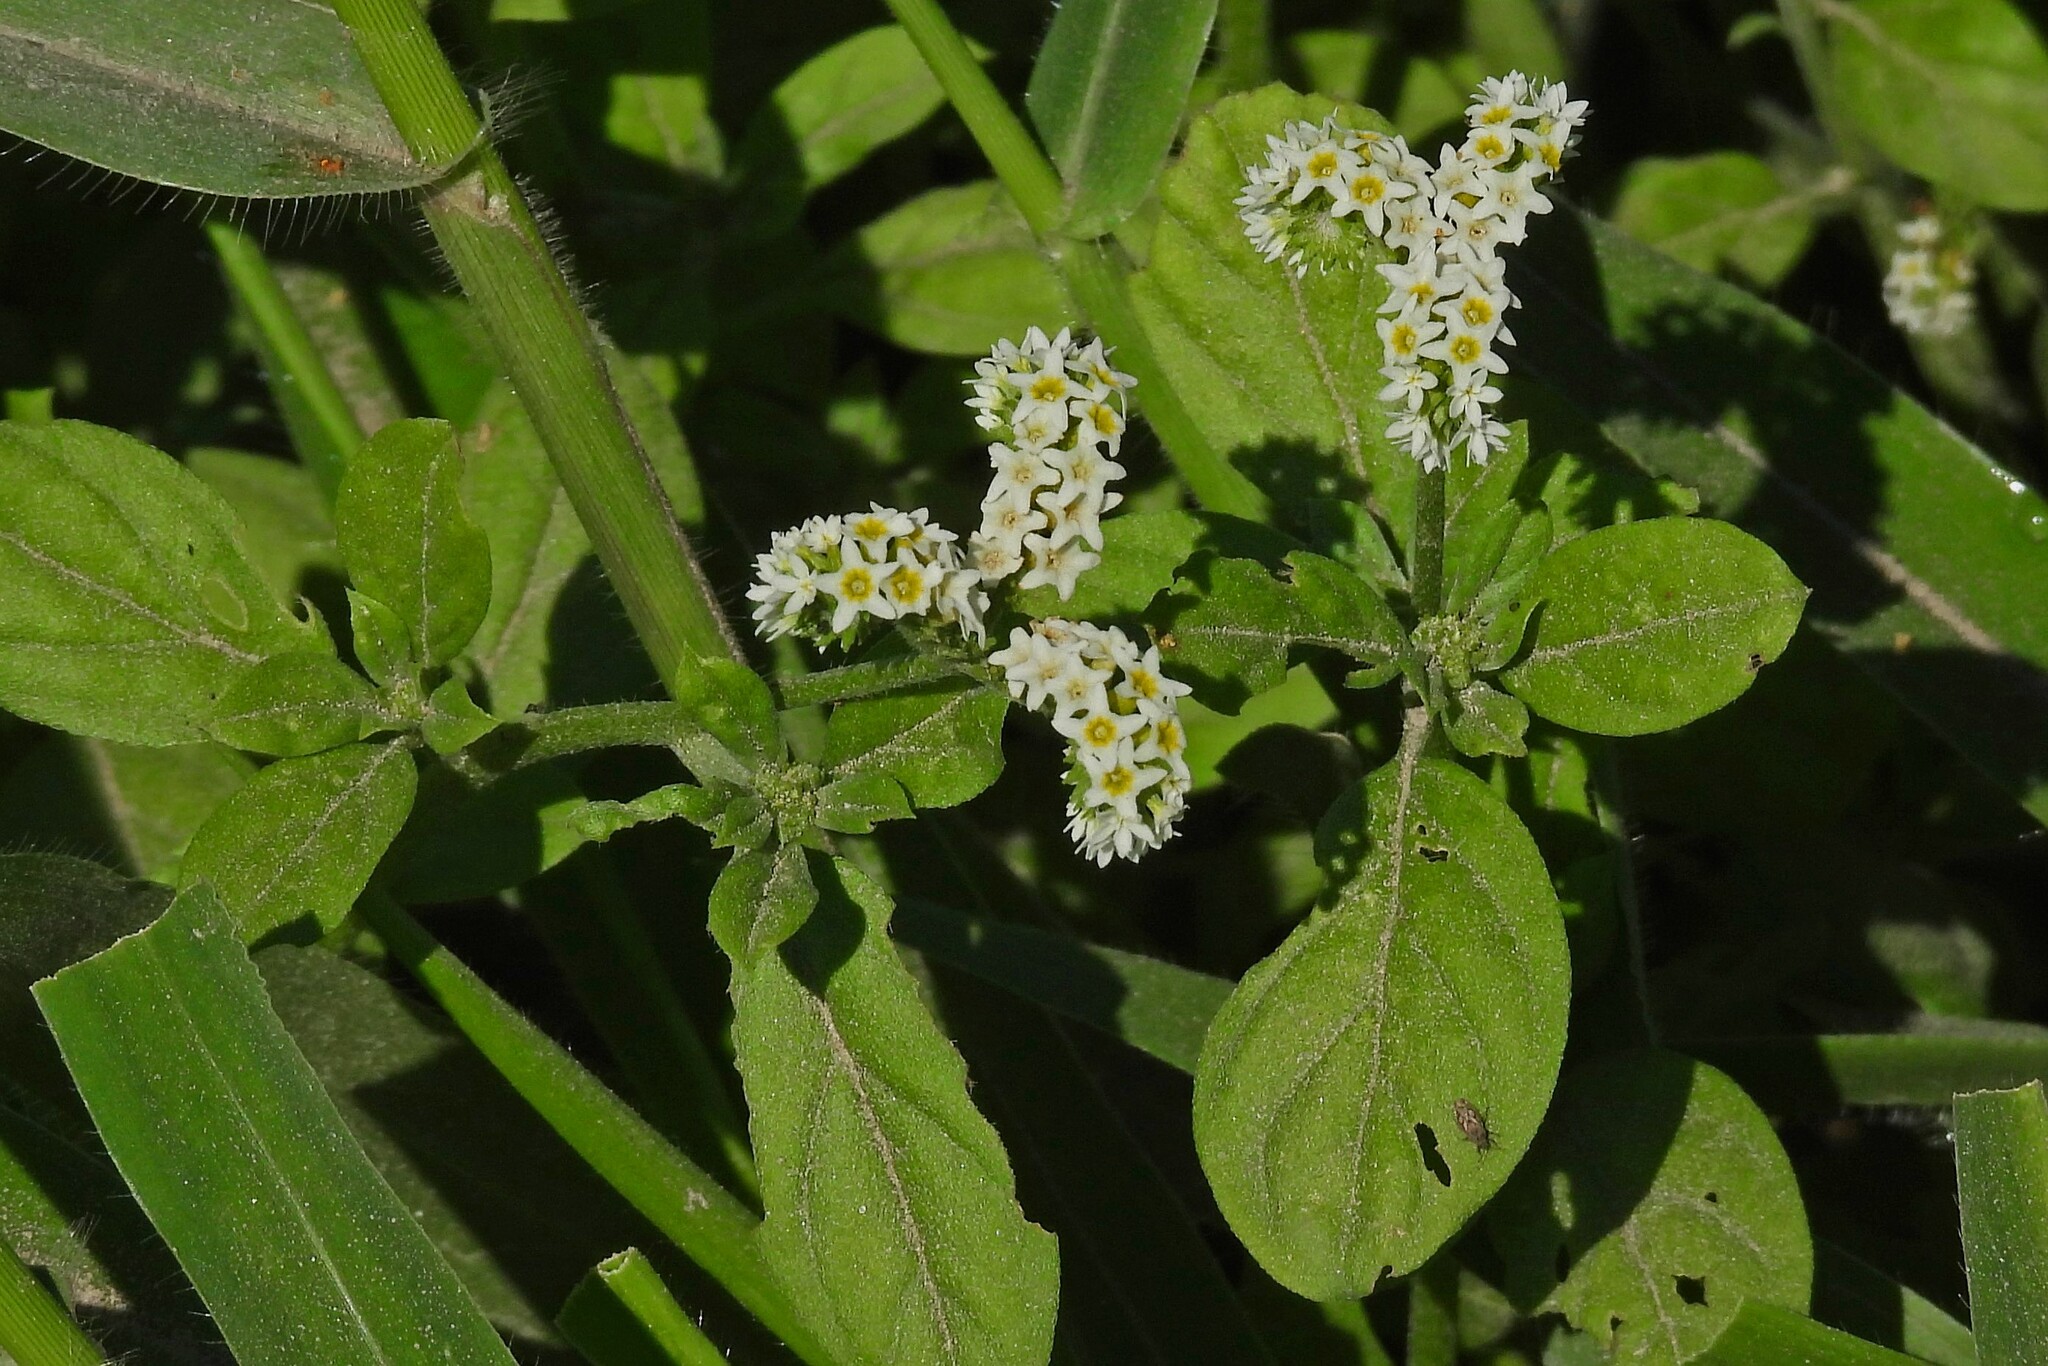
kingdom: Plantae
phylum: Tracheophyta
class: Magnoliopsida
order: Boraginales
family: Heliotropiaceae
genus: Euploca
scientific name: Euploca procumbens
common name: Fourspike heliotrope
